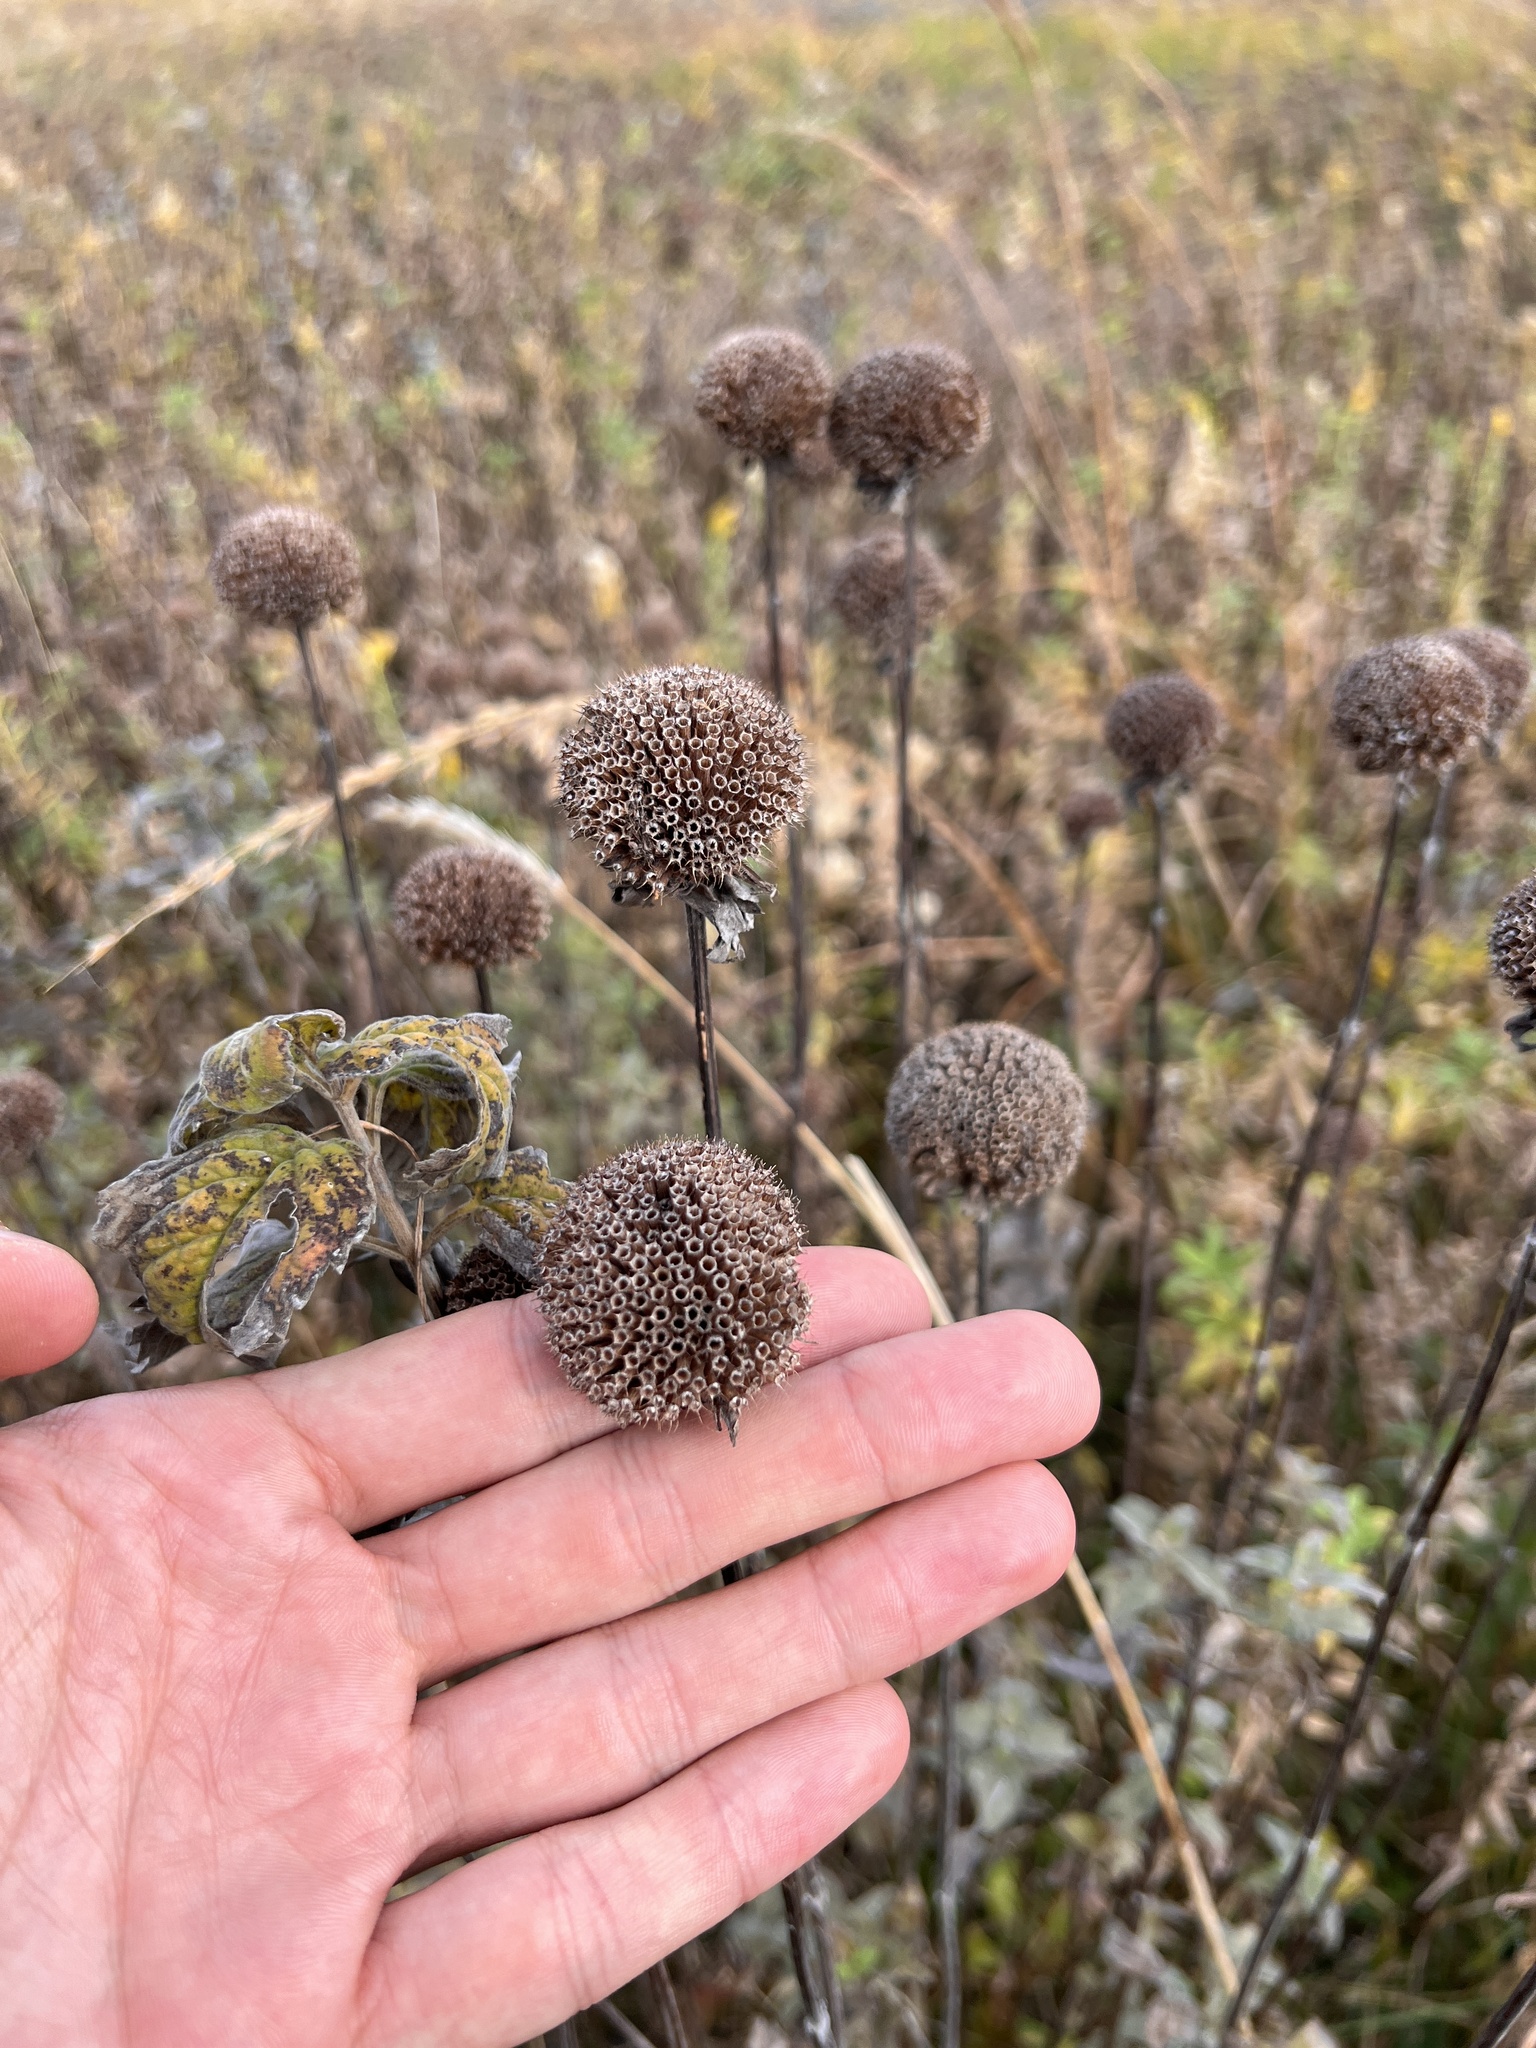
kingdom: Plantae
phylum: Tracheophyta
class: Magnoliopsida
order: Lamiales
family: Lamiaceae
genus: Monarda
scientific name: Monarda fistulosa
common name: Purple beebalm
